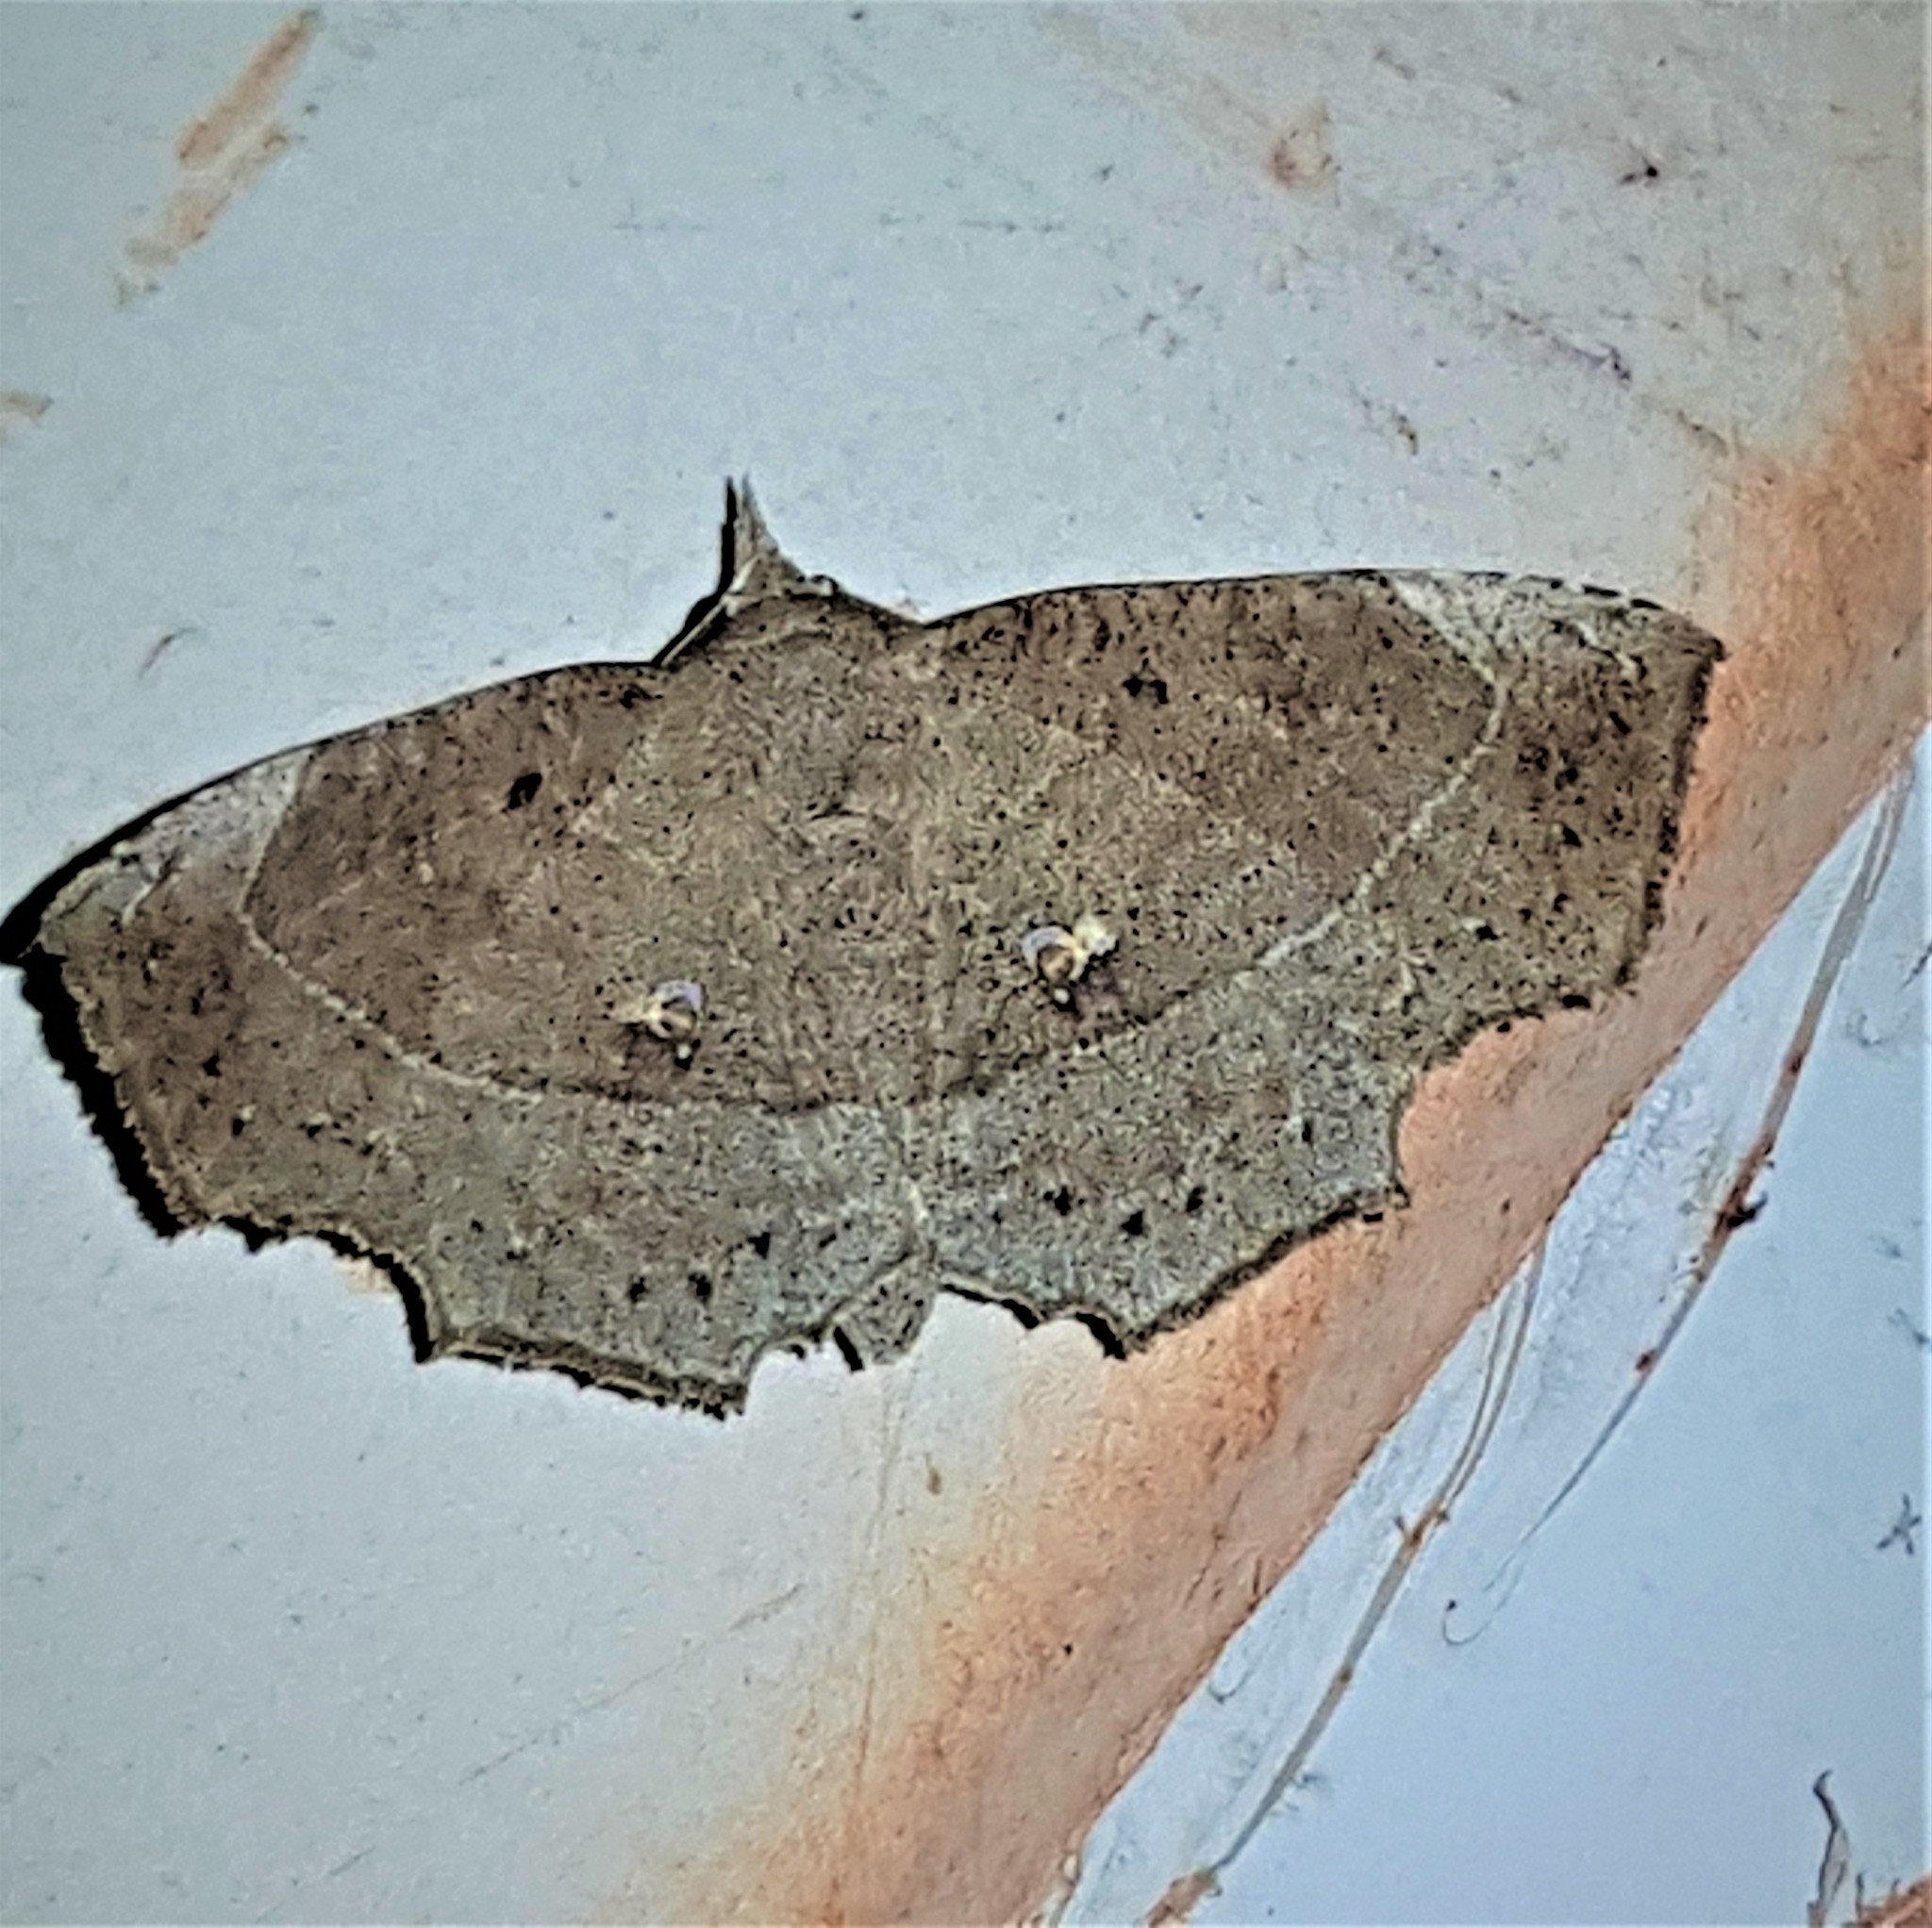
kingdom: Animalia
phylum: Arthropoda
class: Insecta
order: Lepidoptera
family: Erebidae
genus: Syllectra
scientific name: Syllectra congemmalis
